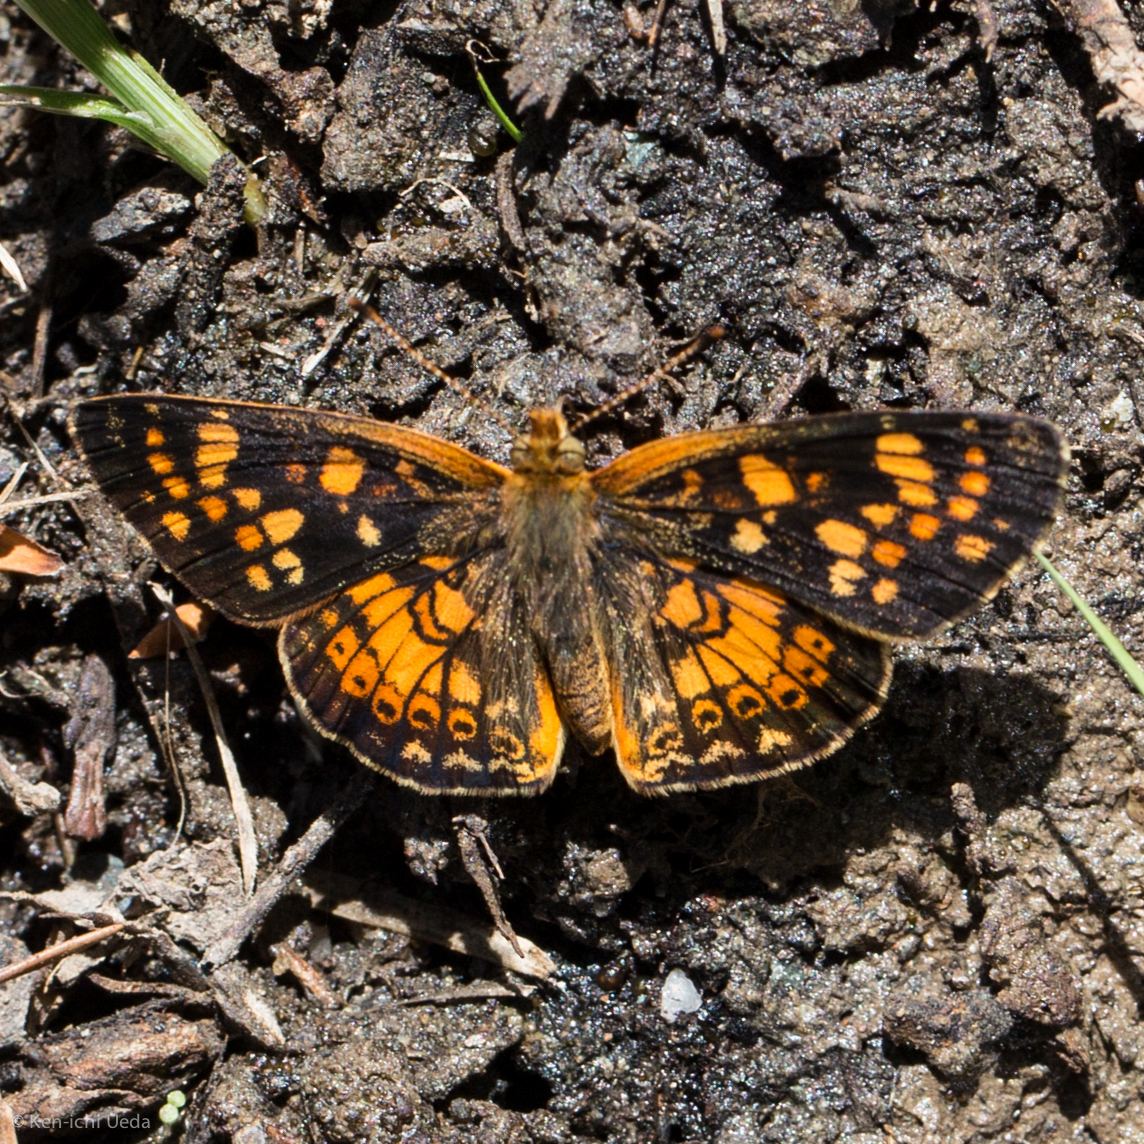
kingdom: Animalia
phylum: Arthropoda
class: Insecta
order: Lepidoptera
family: Nymphalidae
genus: Phyciodes
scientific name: Phyciodes tharos
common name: Pearl crescent
